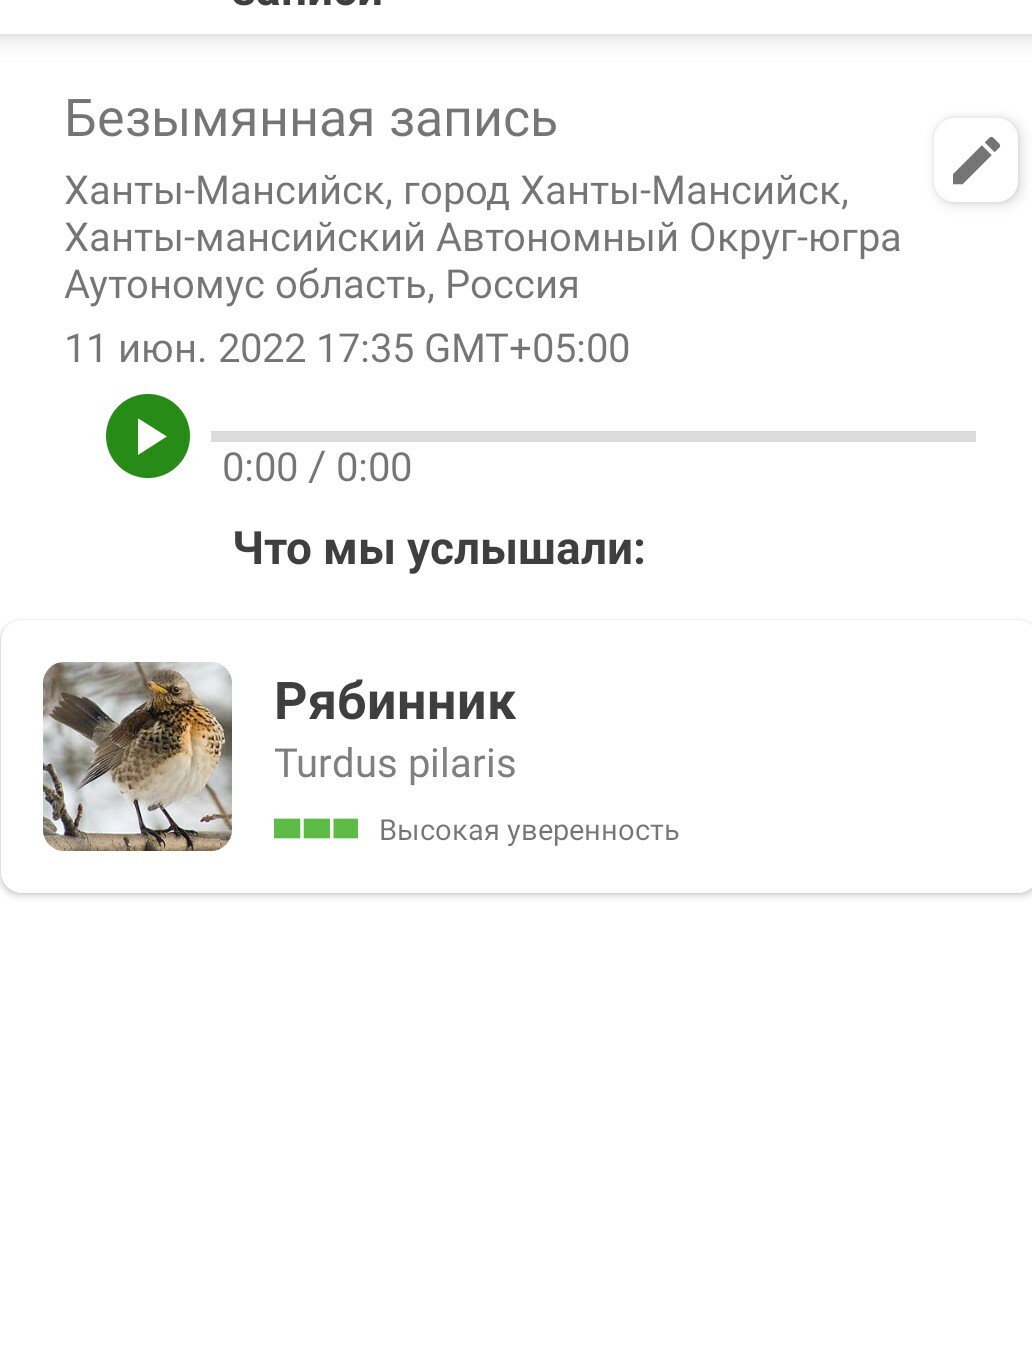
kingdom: Animalia
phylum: Chordata
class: Aves
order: Passeriformes
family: Turdidae
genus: Turdus
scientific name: Turdus pilaris
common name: Fieldfare
